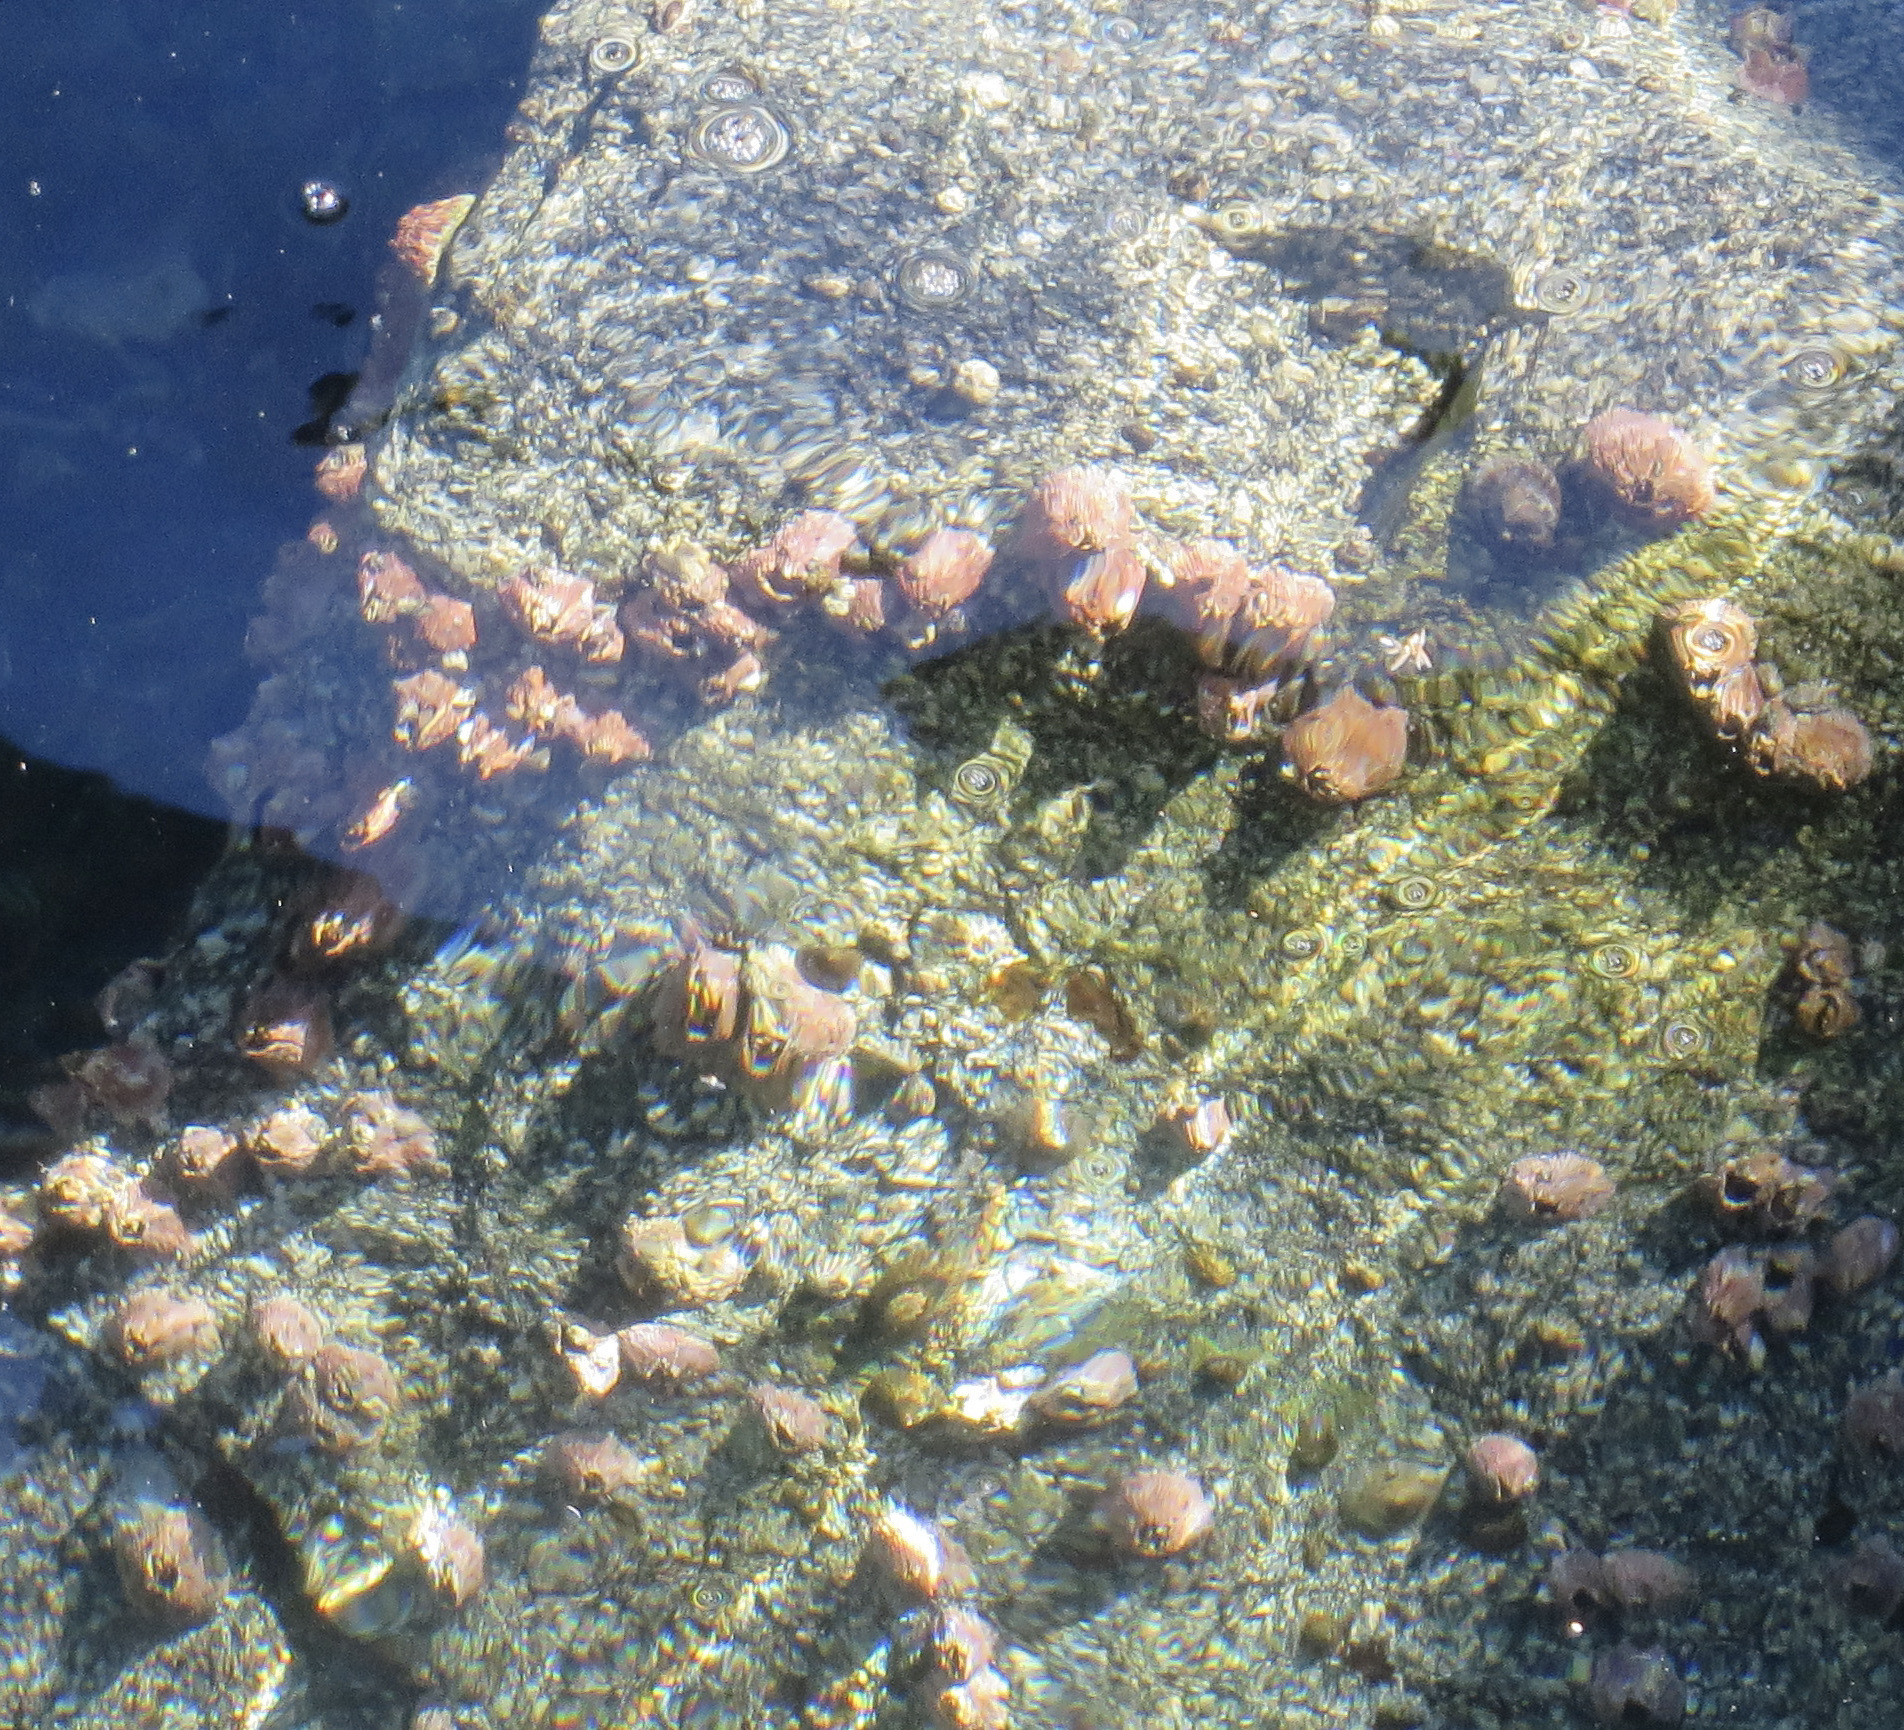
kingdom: Animalia
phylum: Arthropoda
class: Maxillopoda
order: Sessilia
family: Tetraclitidae
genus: Tetraclita
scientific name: Tetraclita rubescens
